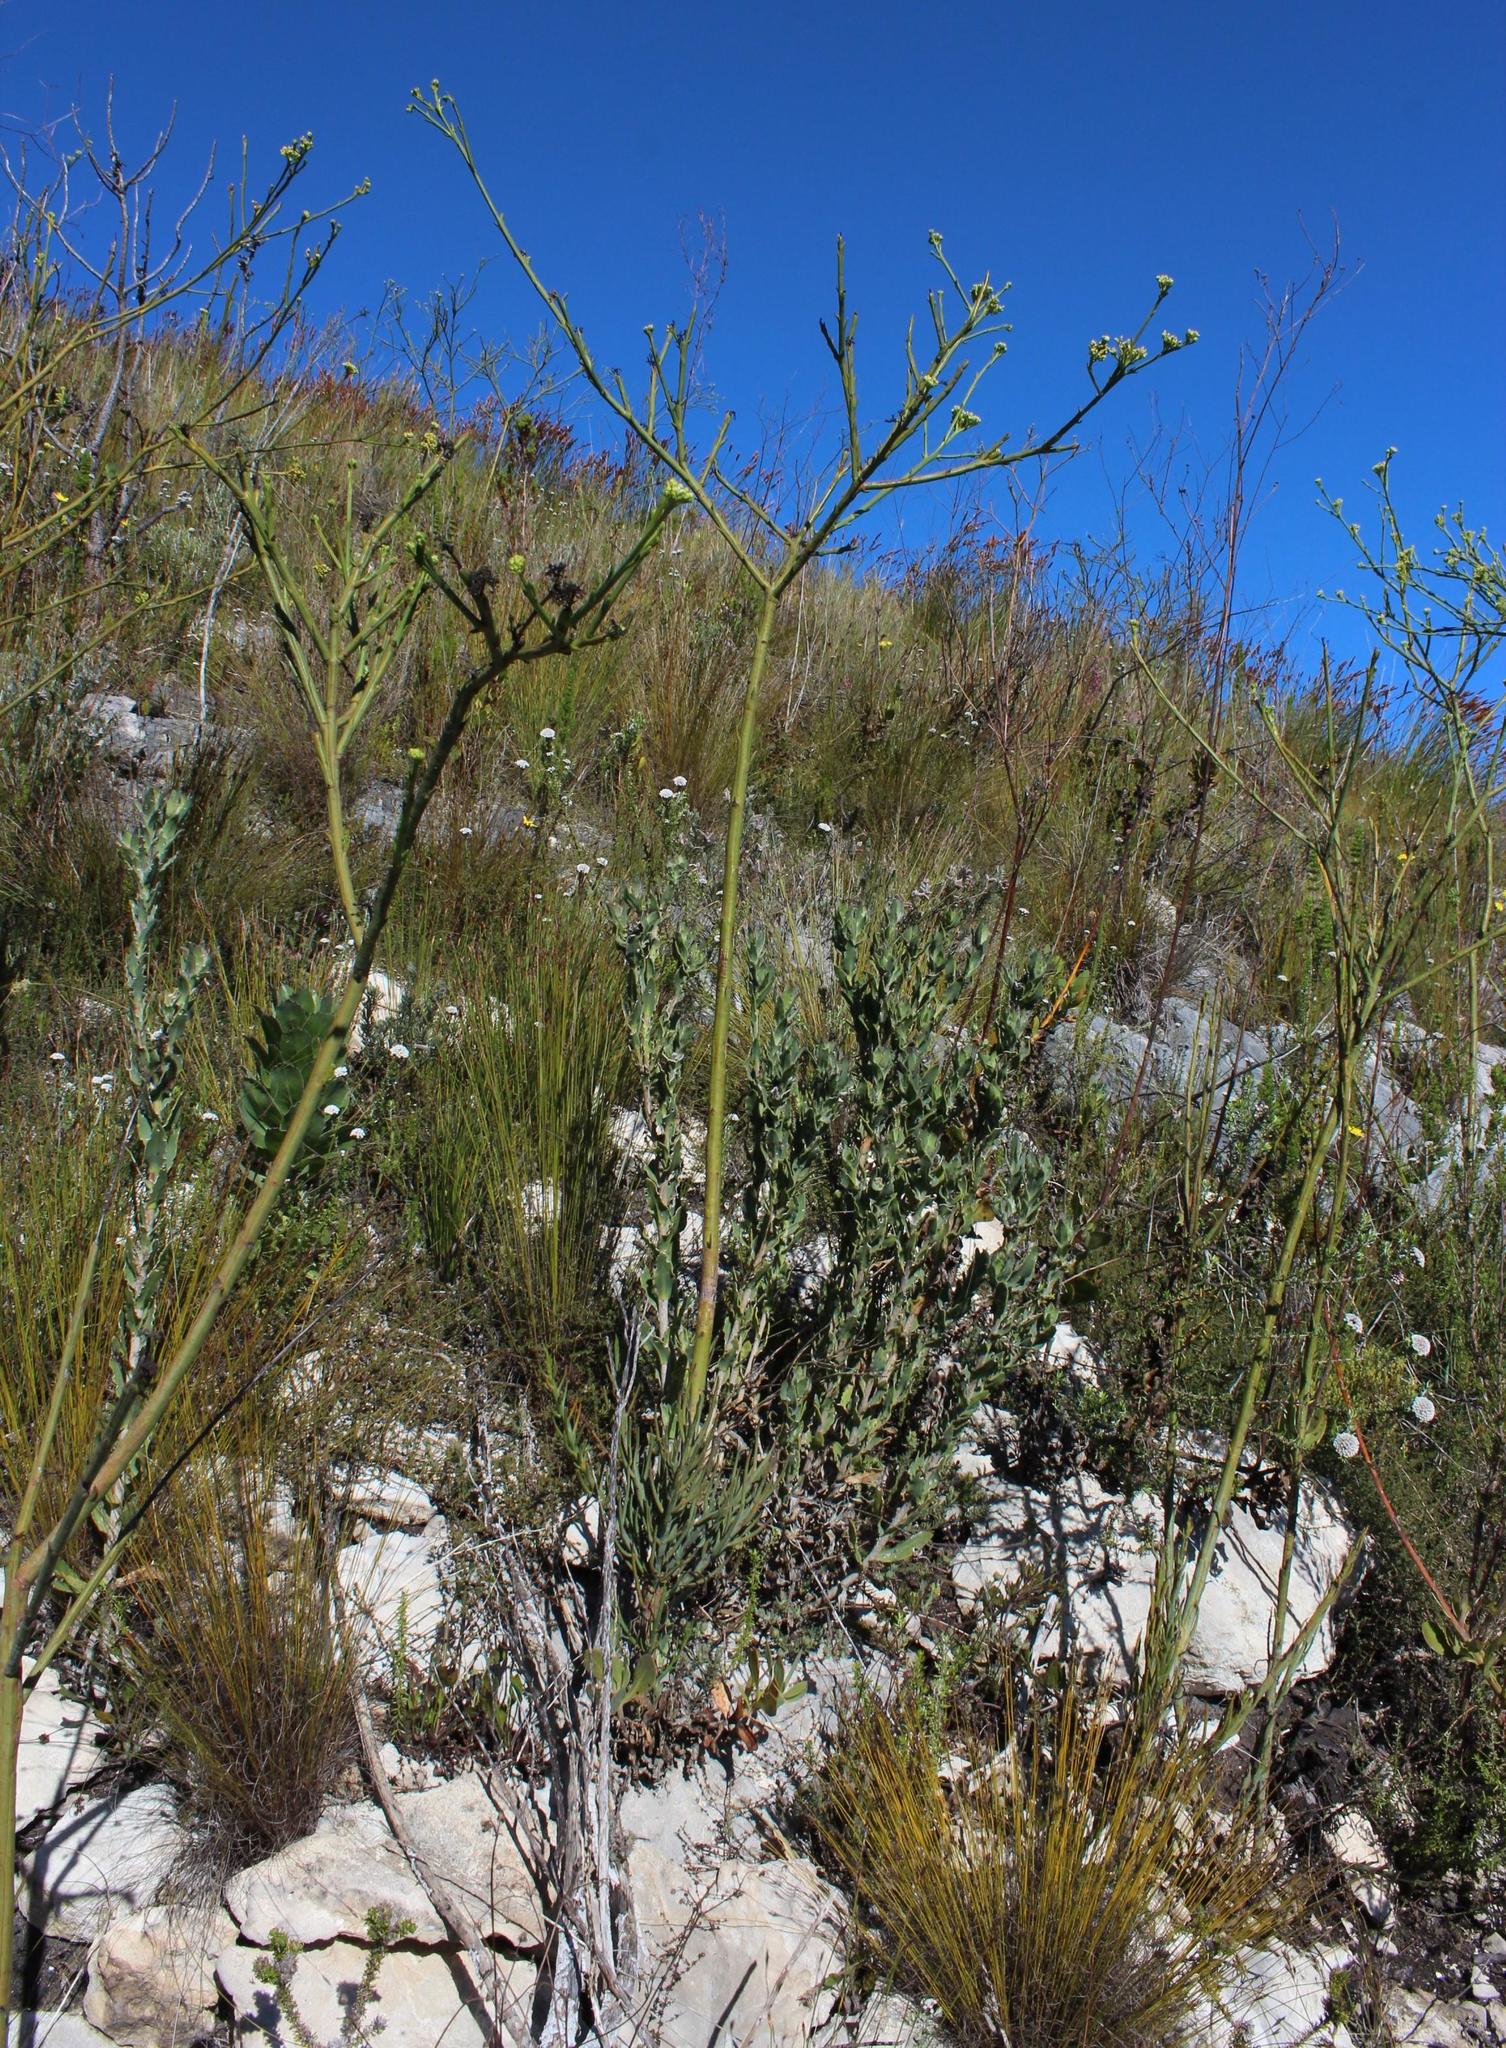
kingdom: Plantae
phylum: Tracheophyta
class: Magnoliopsida
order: Santalales
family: Thesiaceae
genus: Thesium
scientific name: Thesium strictum
